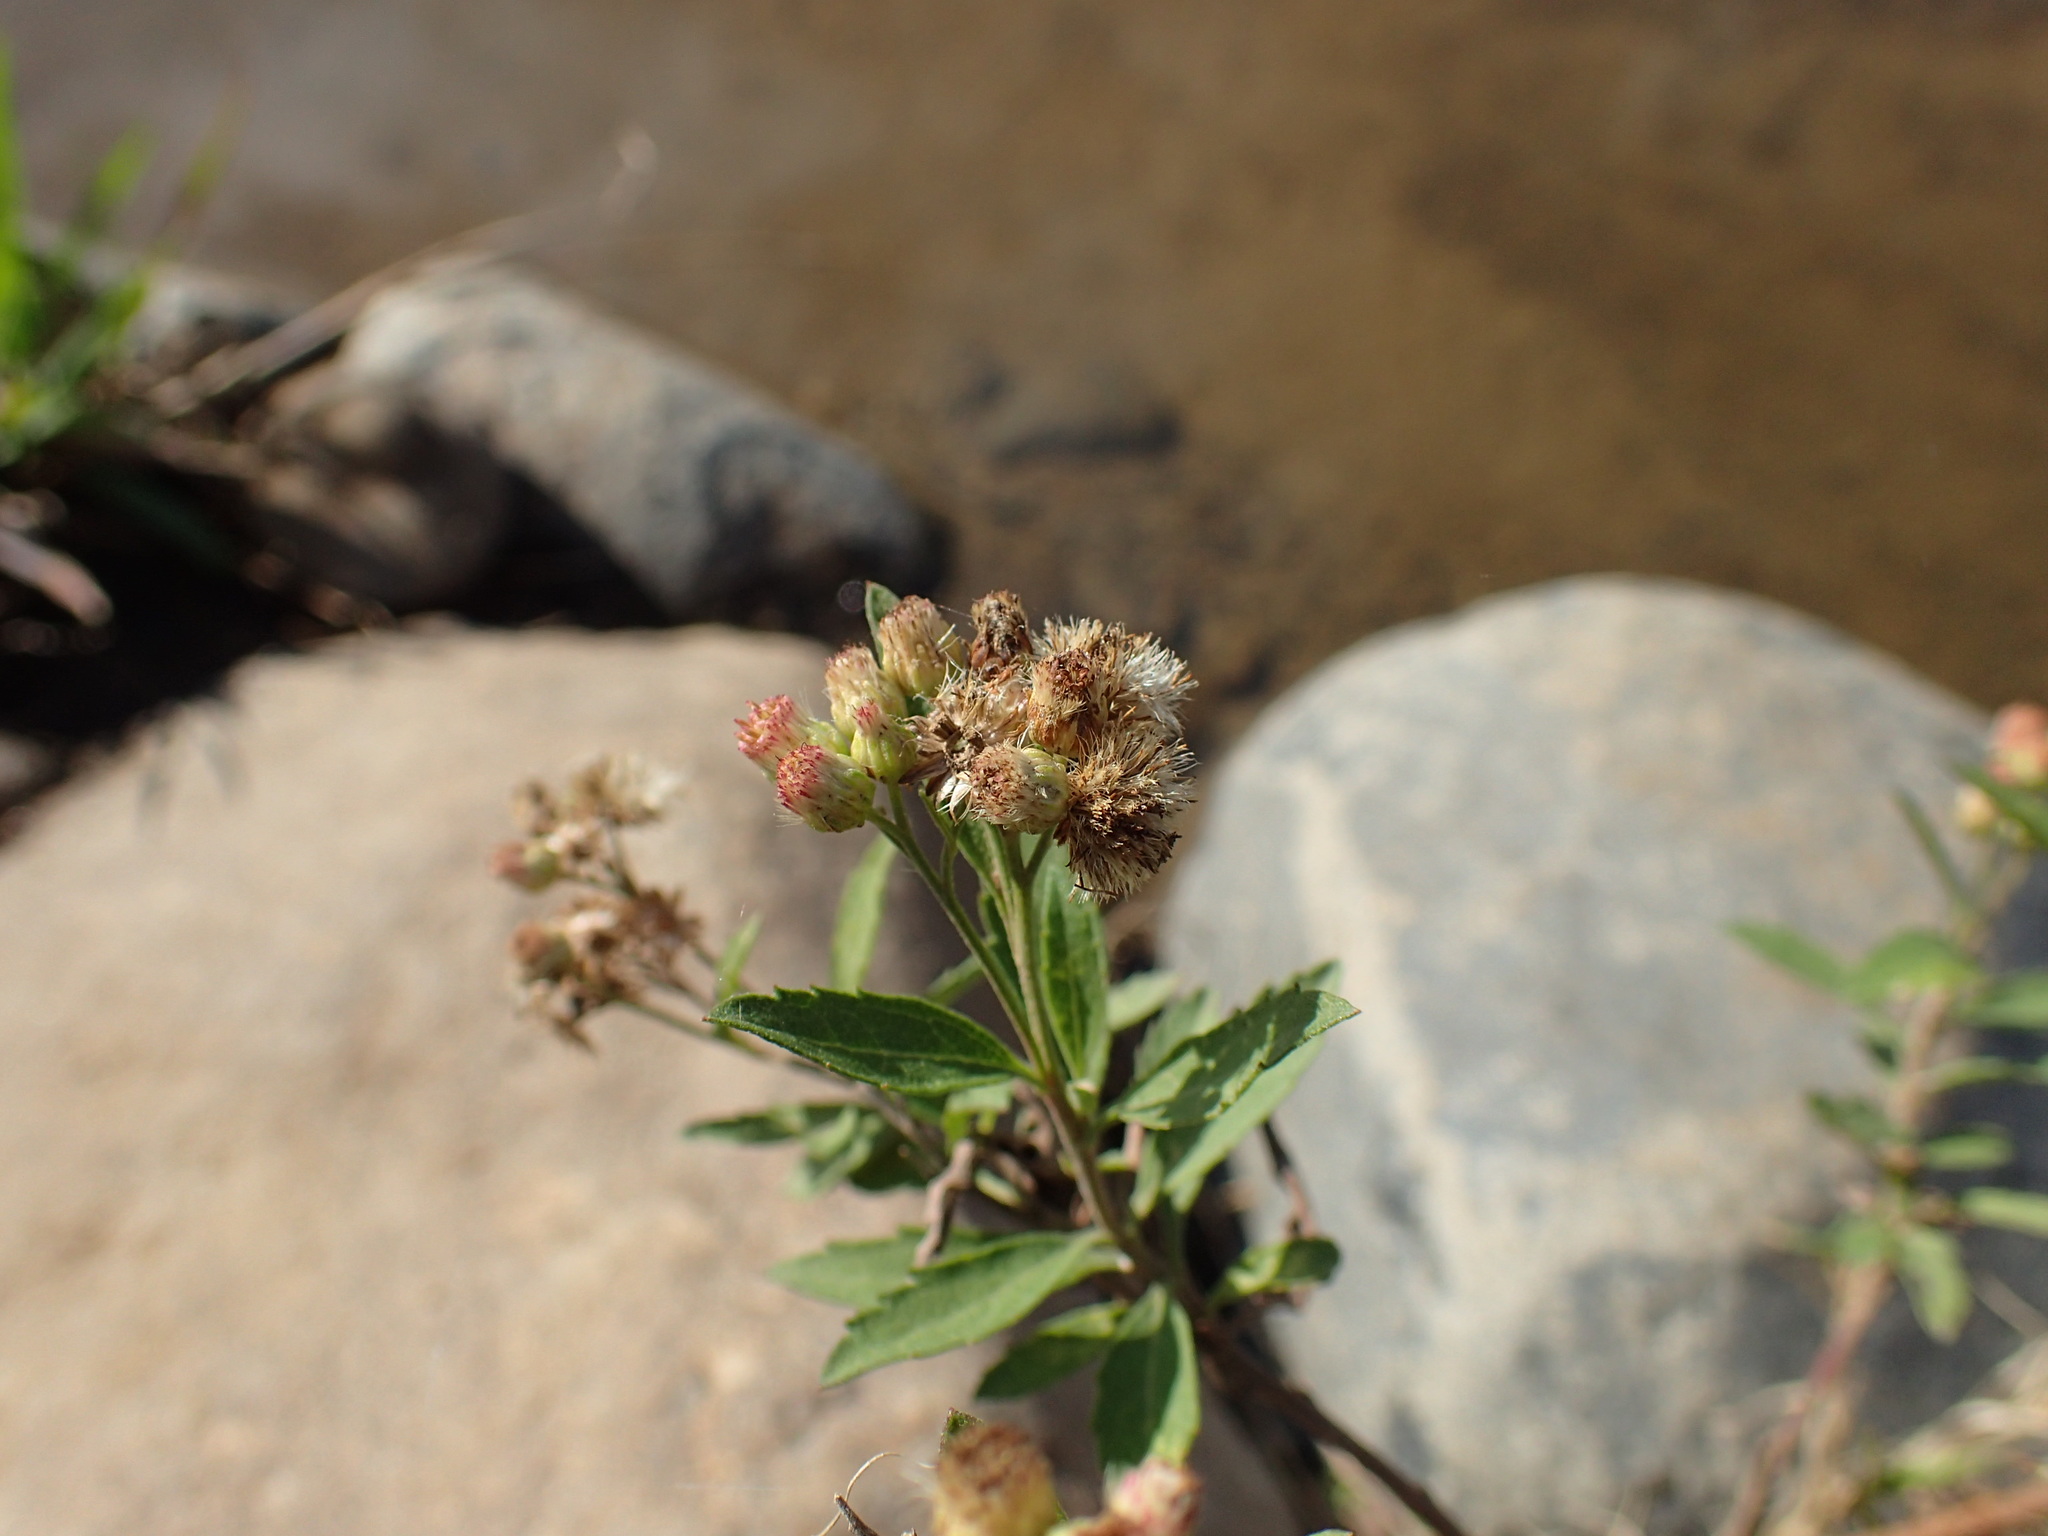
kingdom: Plantae
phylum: Tracheophyta
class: Magnoliopsida
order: Asterales
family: Asteraceae
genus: Nidorella
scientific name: Nidorella ivifolia
